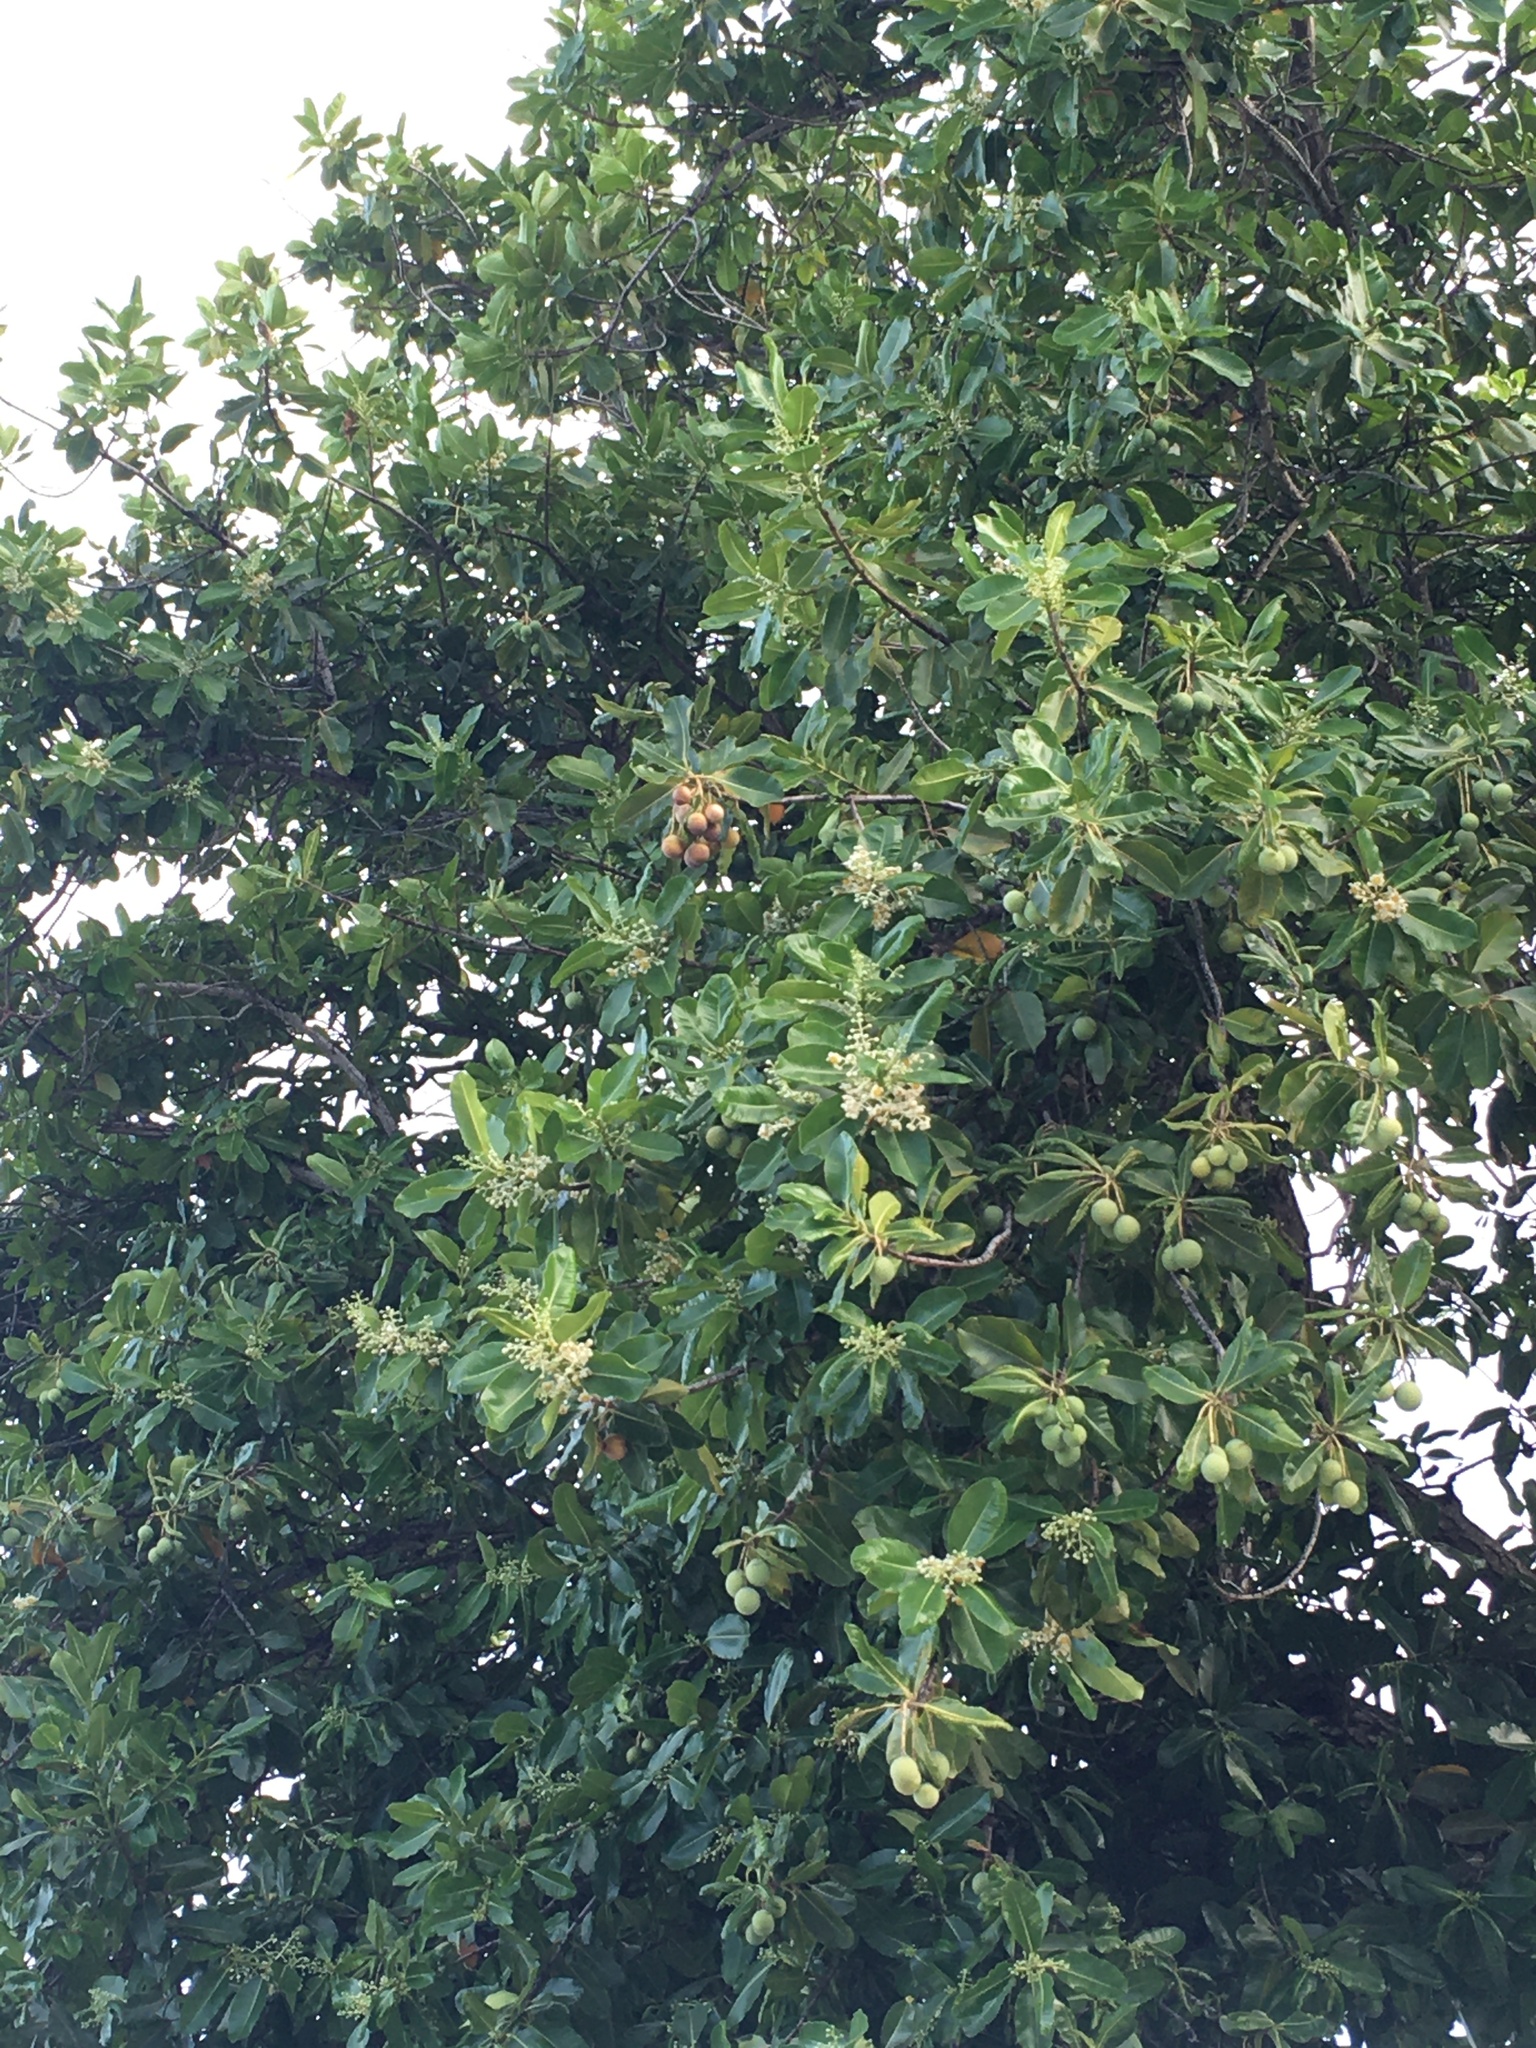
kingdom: Plantae
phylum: Tracheophyta
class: Magnoliopsida
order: Malpighiales
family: Calophyllaceae
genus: Calophyllum
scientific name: Calophyllum inophyllum
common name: Alexandrian laurel
